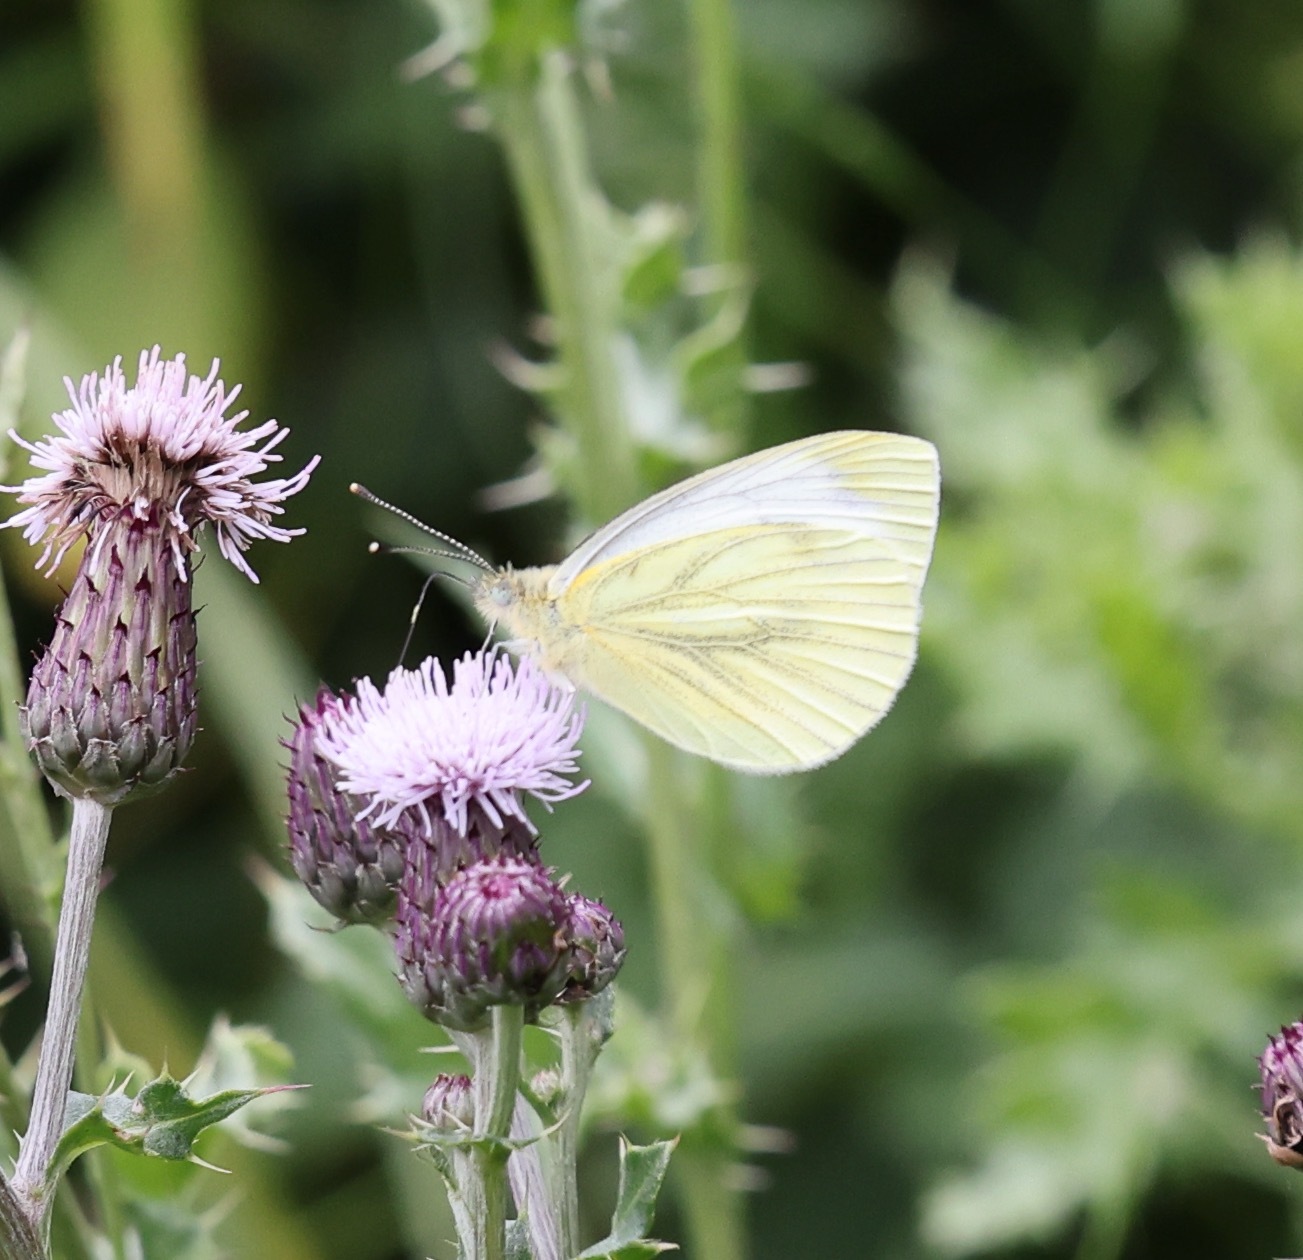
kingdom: Animalia
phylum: Arthropoda
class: Insecta
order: Lepidoptera
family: Pieridae
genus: Pieris
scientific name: Pieris napi
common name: Green-veined white
